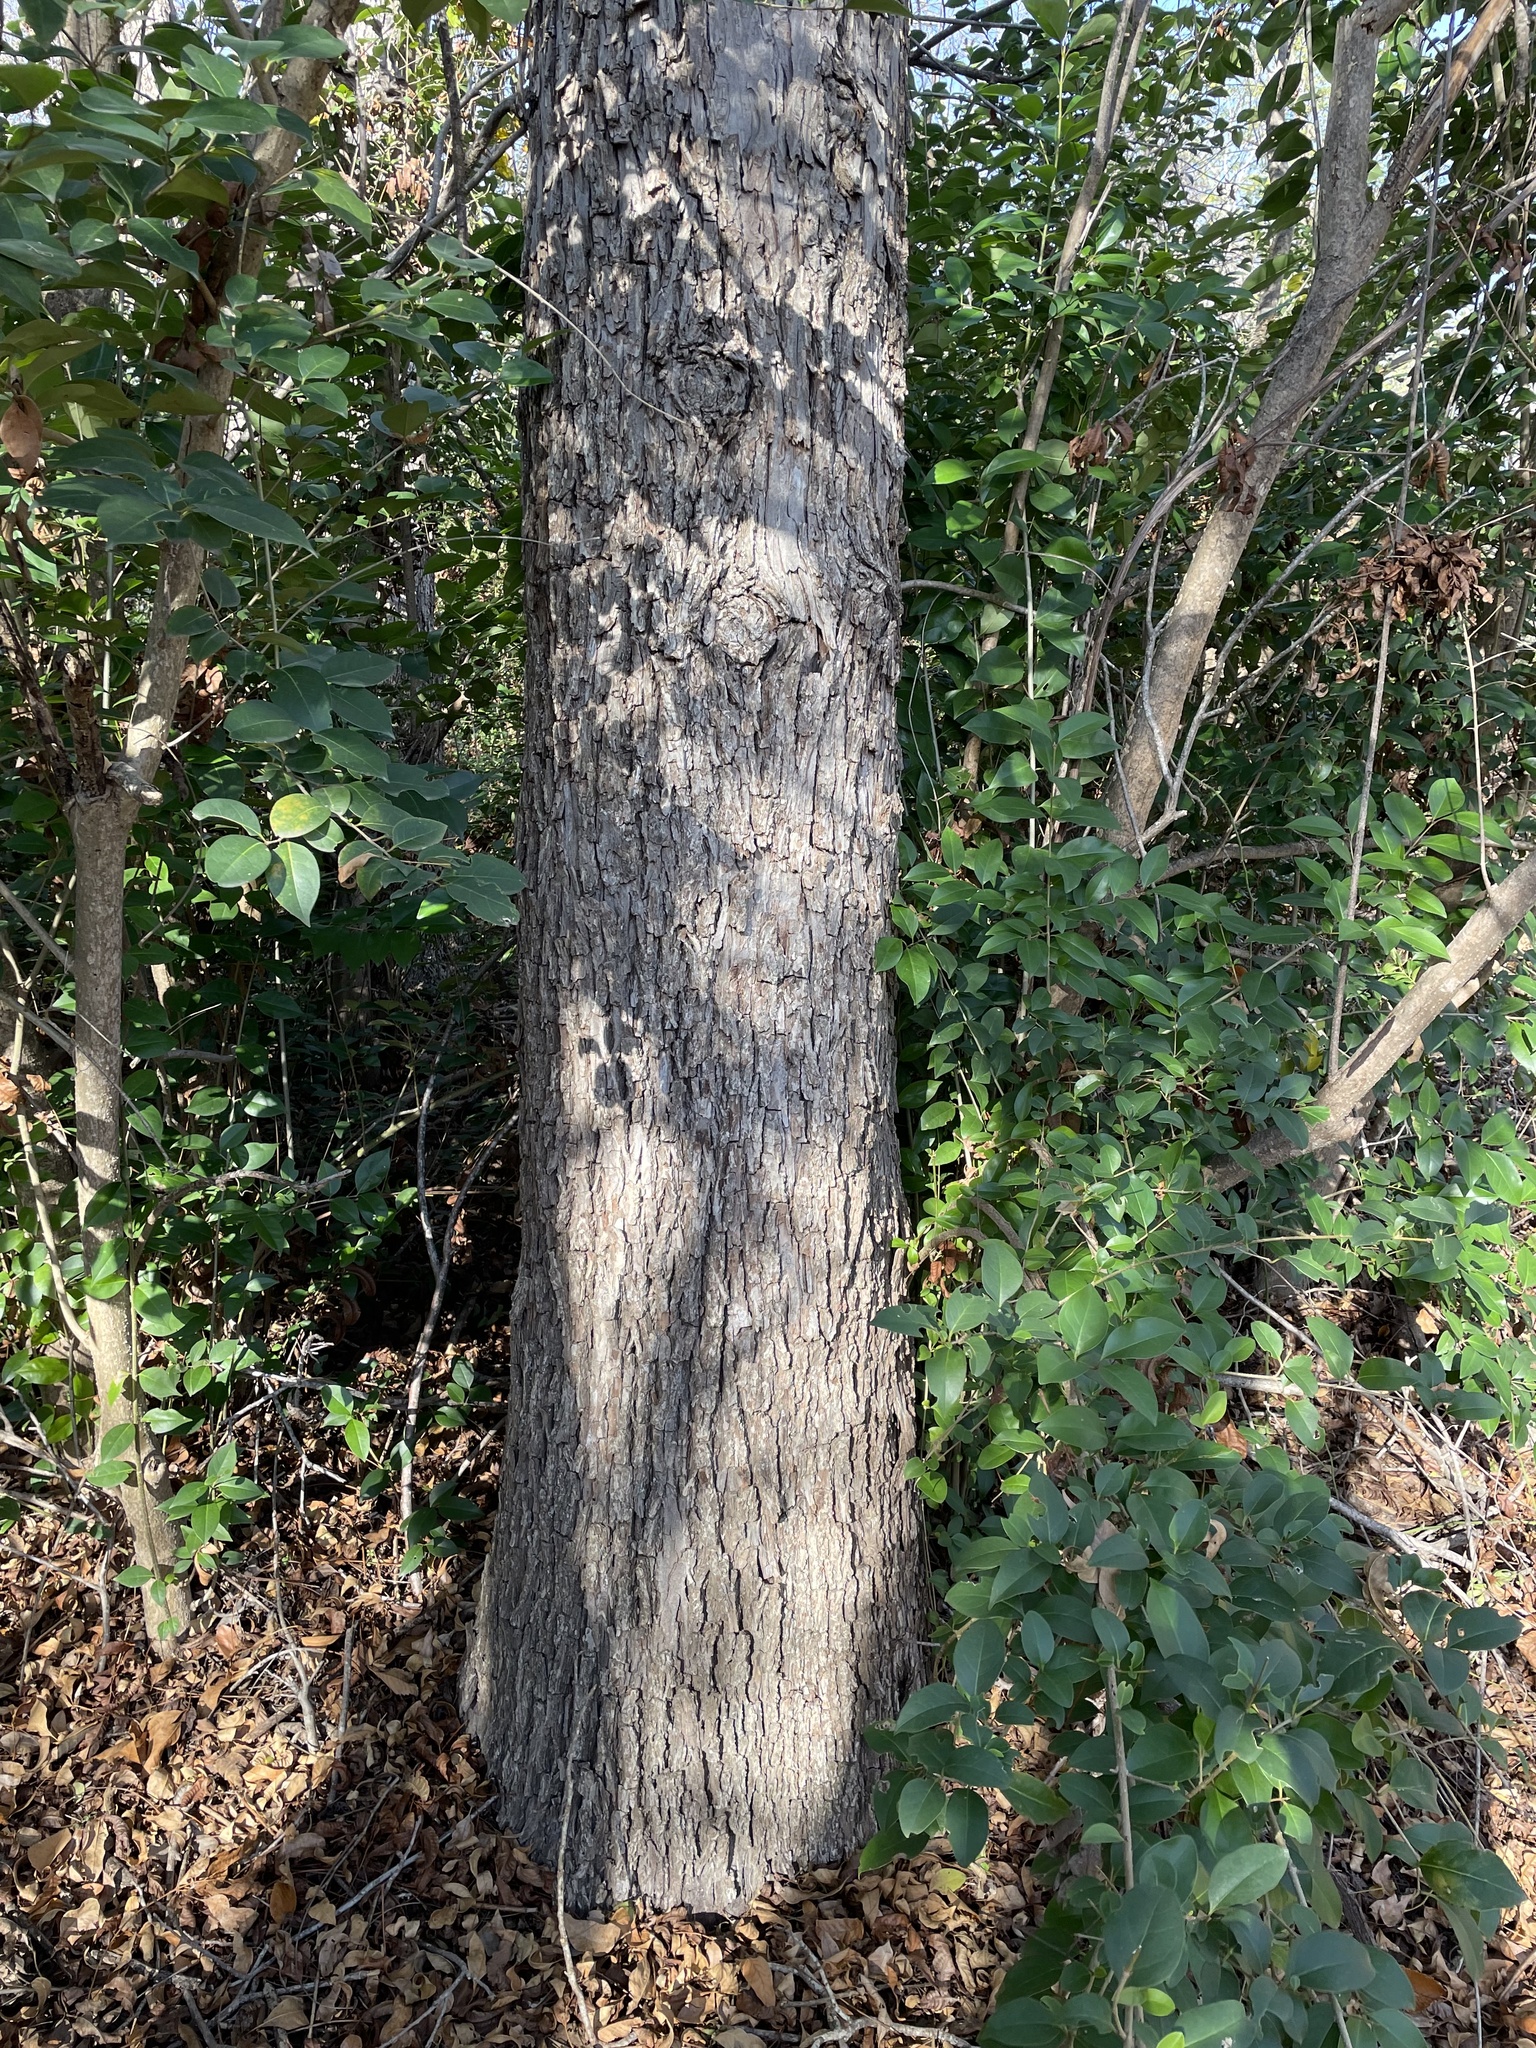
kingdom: Plantae
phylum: Tracheophyta
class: Magnoliopsida
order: Fagales
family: Juglandaceae
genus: Carya
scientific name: Carya illinoinensis
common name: Pecan
